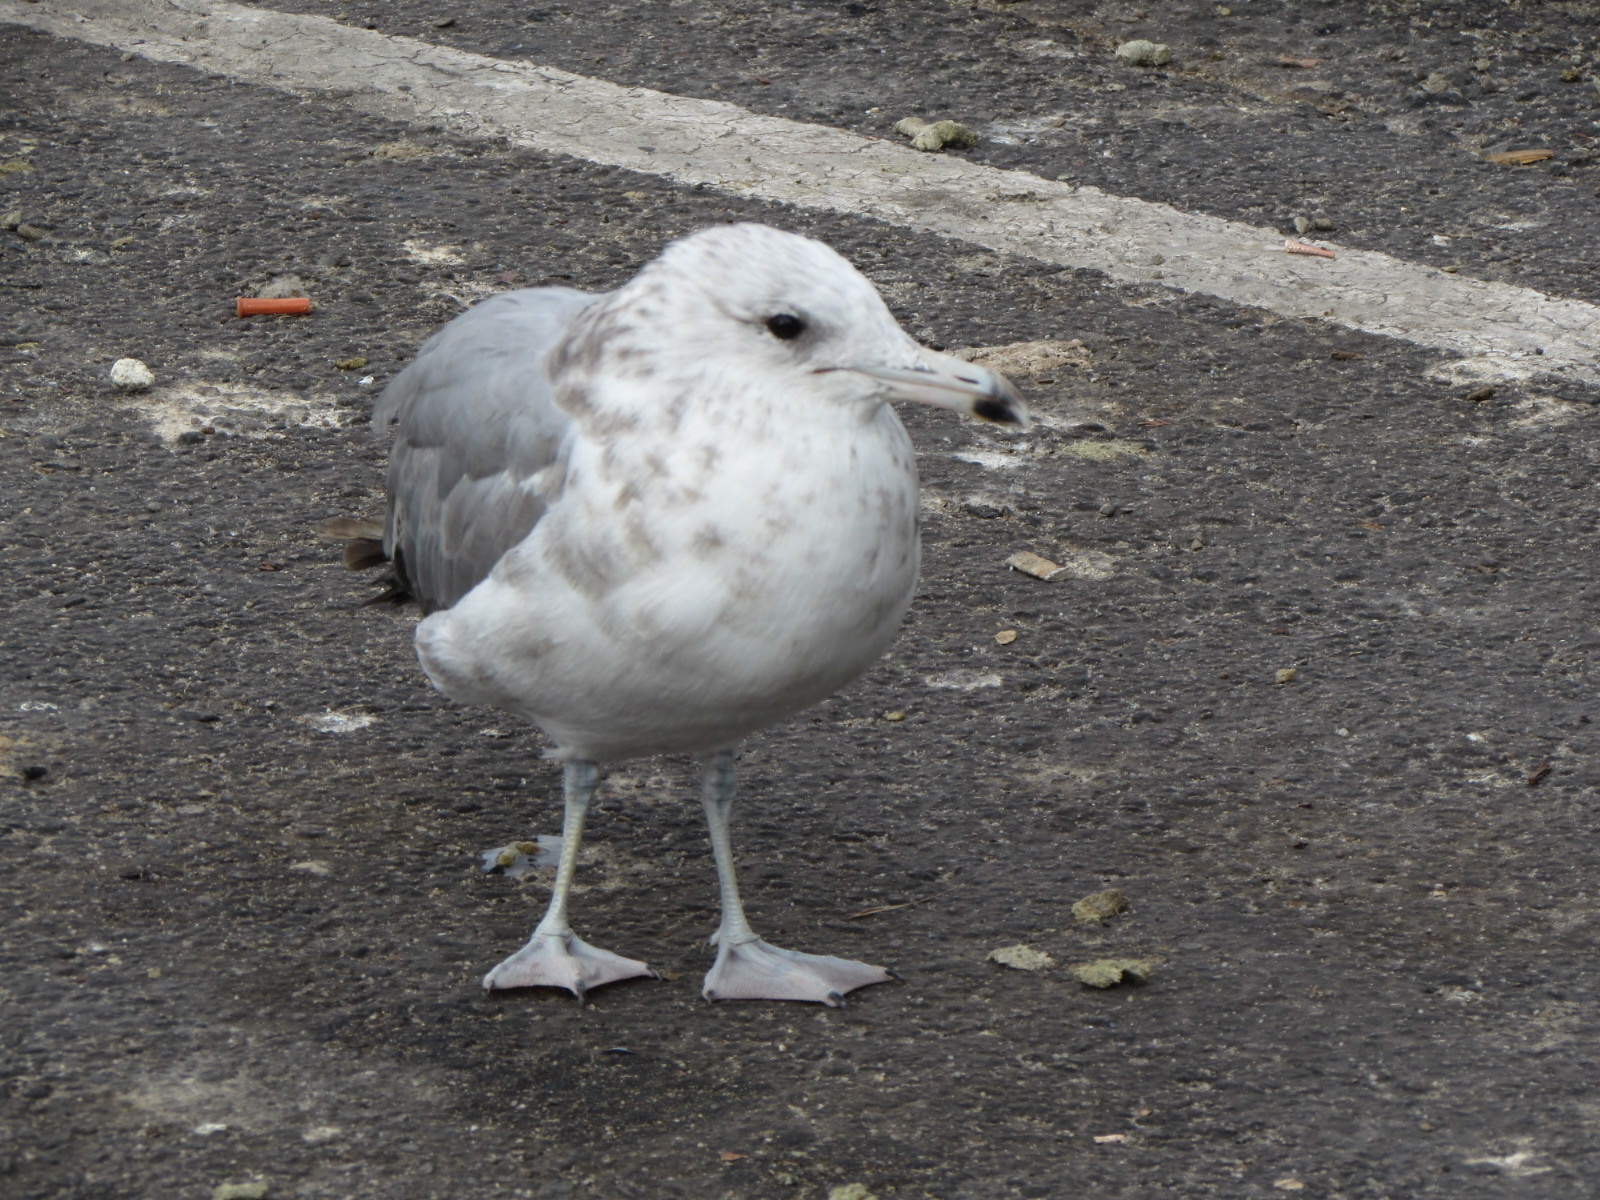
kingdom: Animalia
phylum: Chordata
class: Aves
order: Charadriiformes
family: Laridae
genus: Larus
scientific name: Larus californicus
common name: California gull
